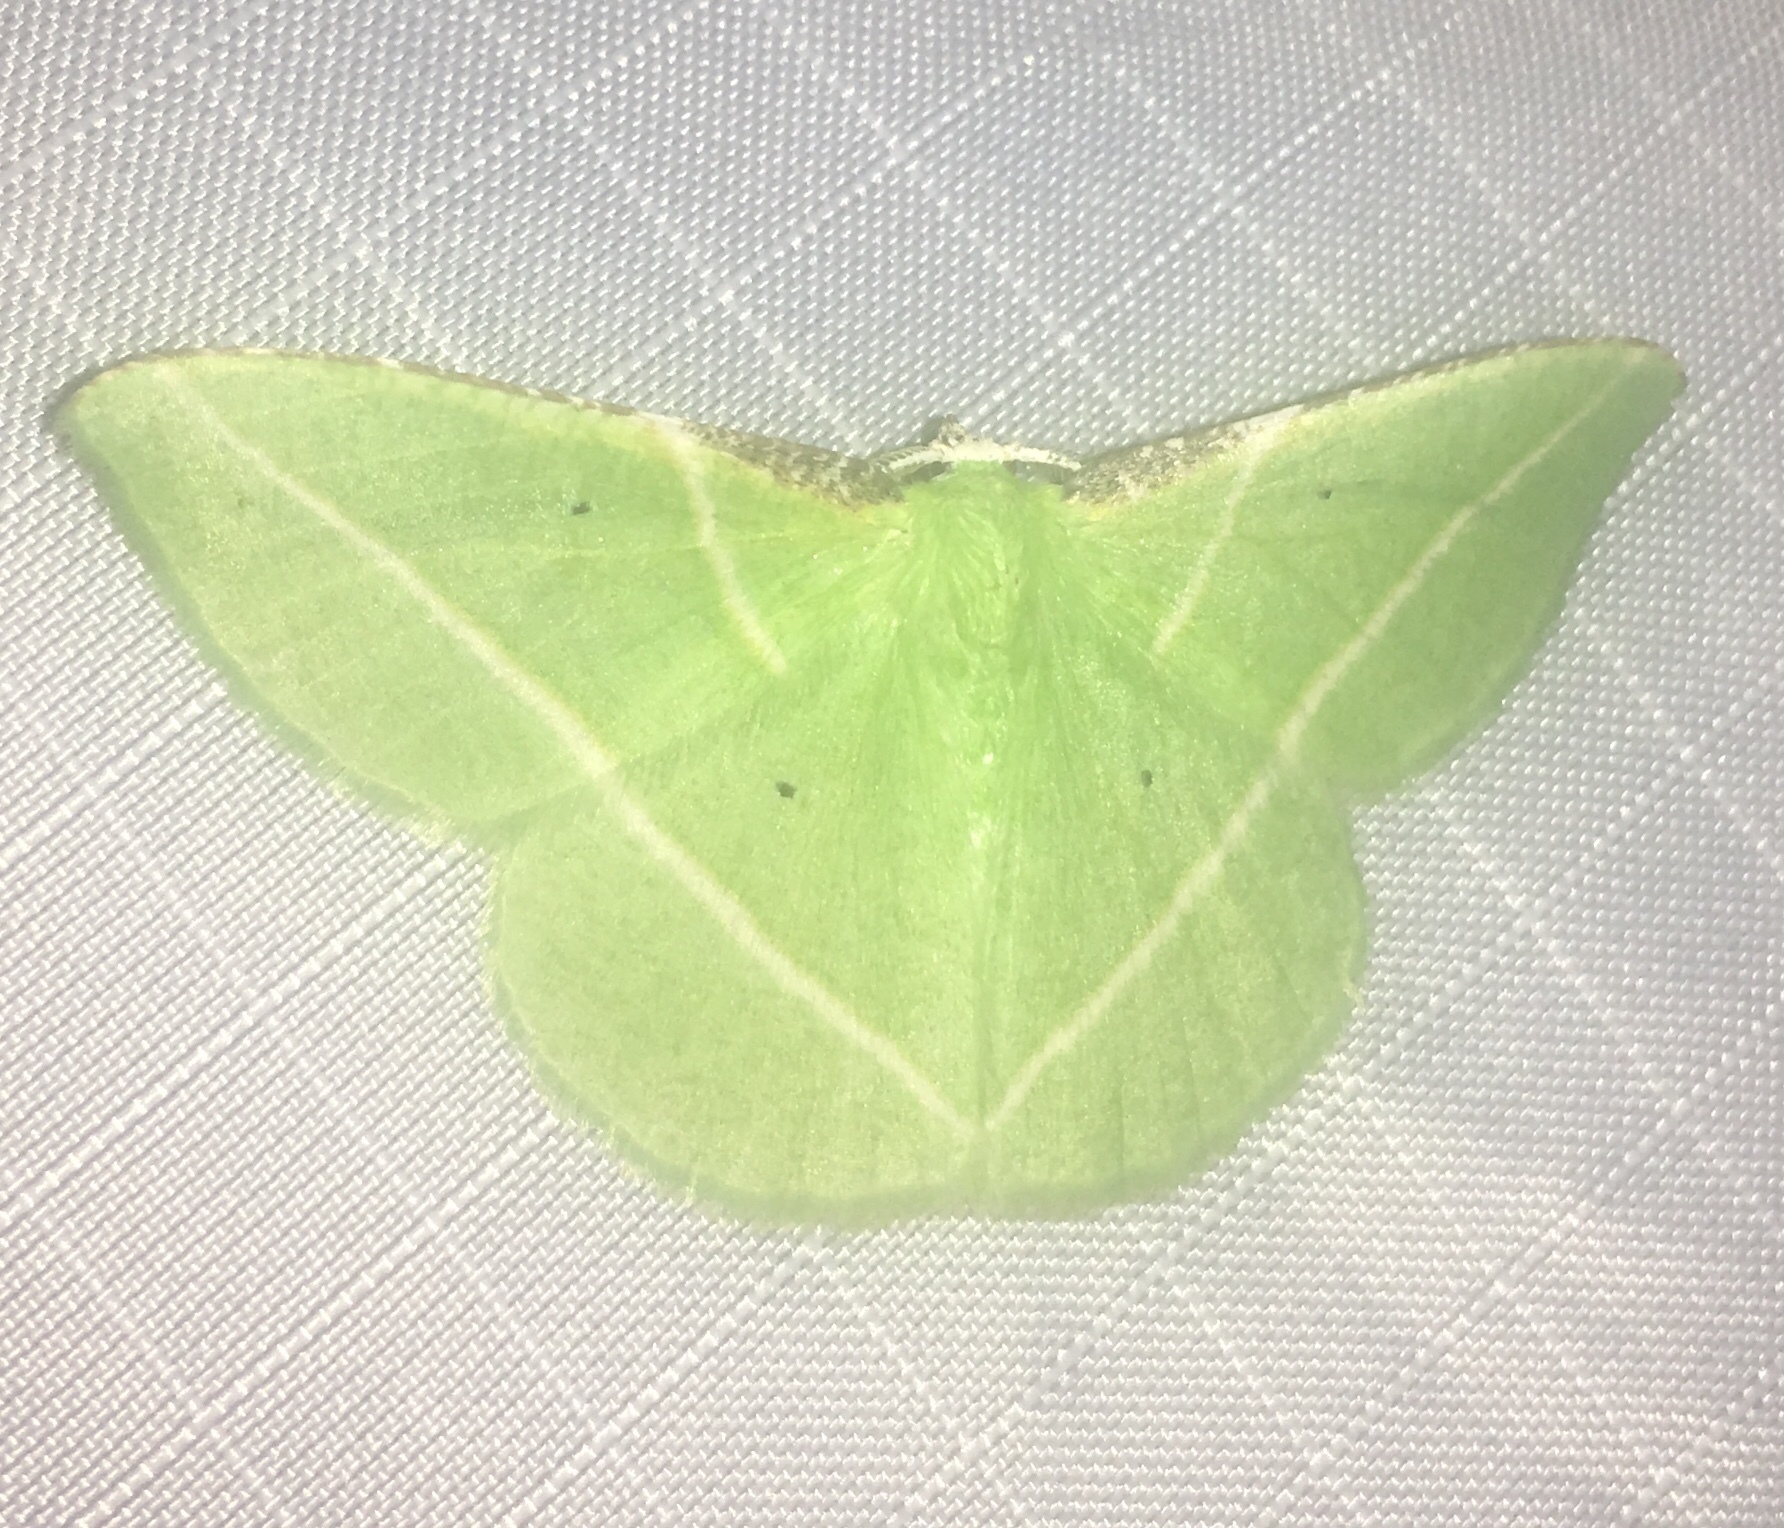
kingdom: Animalia
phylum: Arthropoda
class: Insecta
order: Lepidoptera
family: Geometridae
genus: Dichorda
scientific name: Dichorda illustraria
